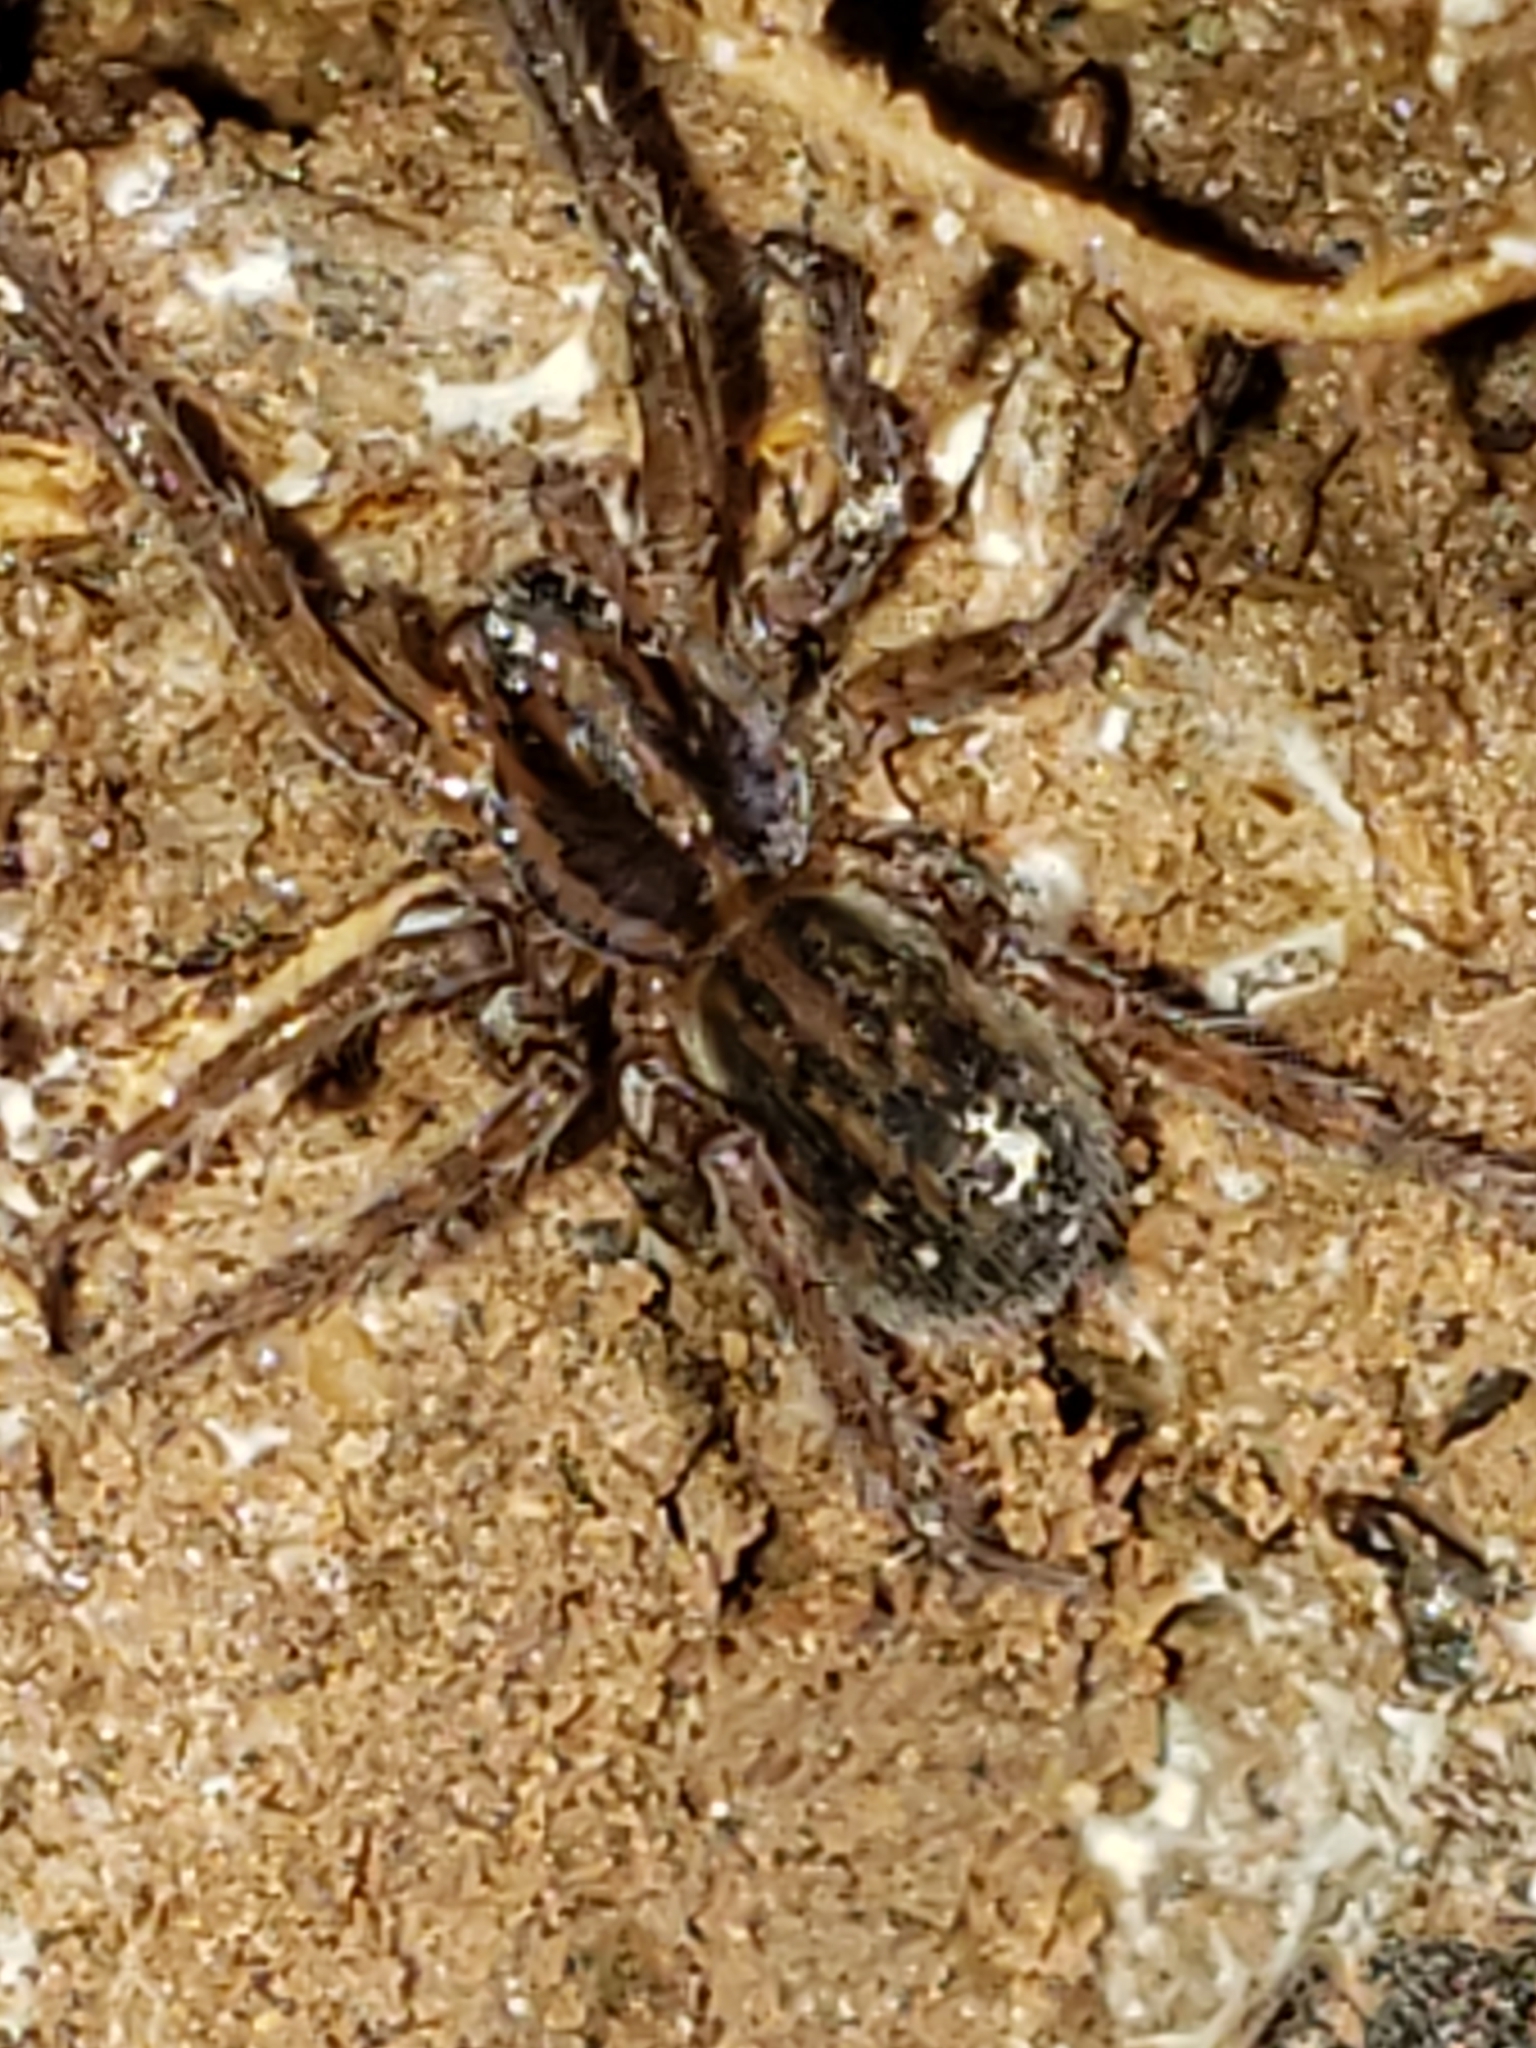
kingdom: Animalia
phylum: Arthropoda
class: Arachnida
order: Araneae
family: Lycosidae
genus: Trochosa
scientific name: Trochosa ruricola
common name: Spider
